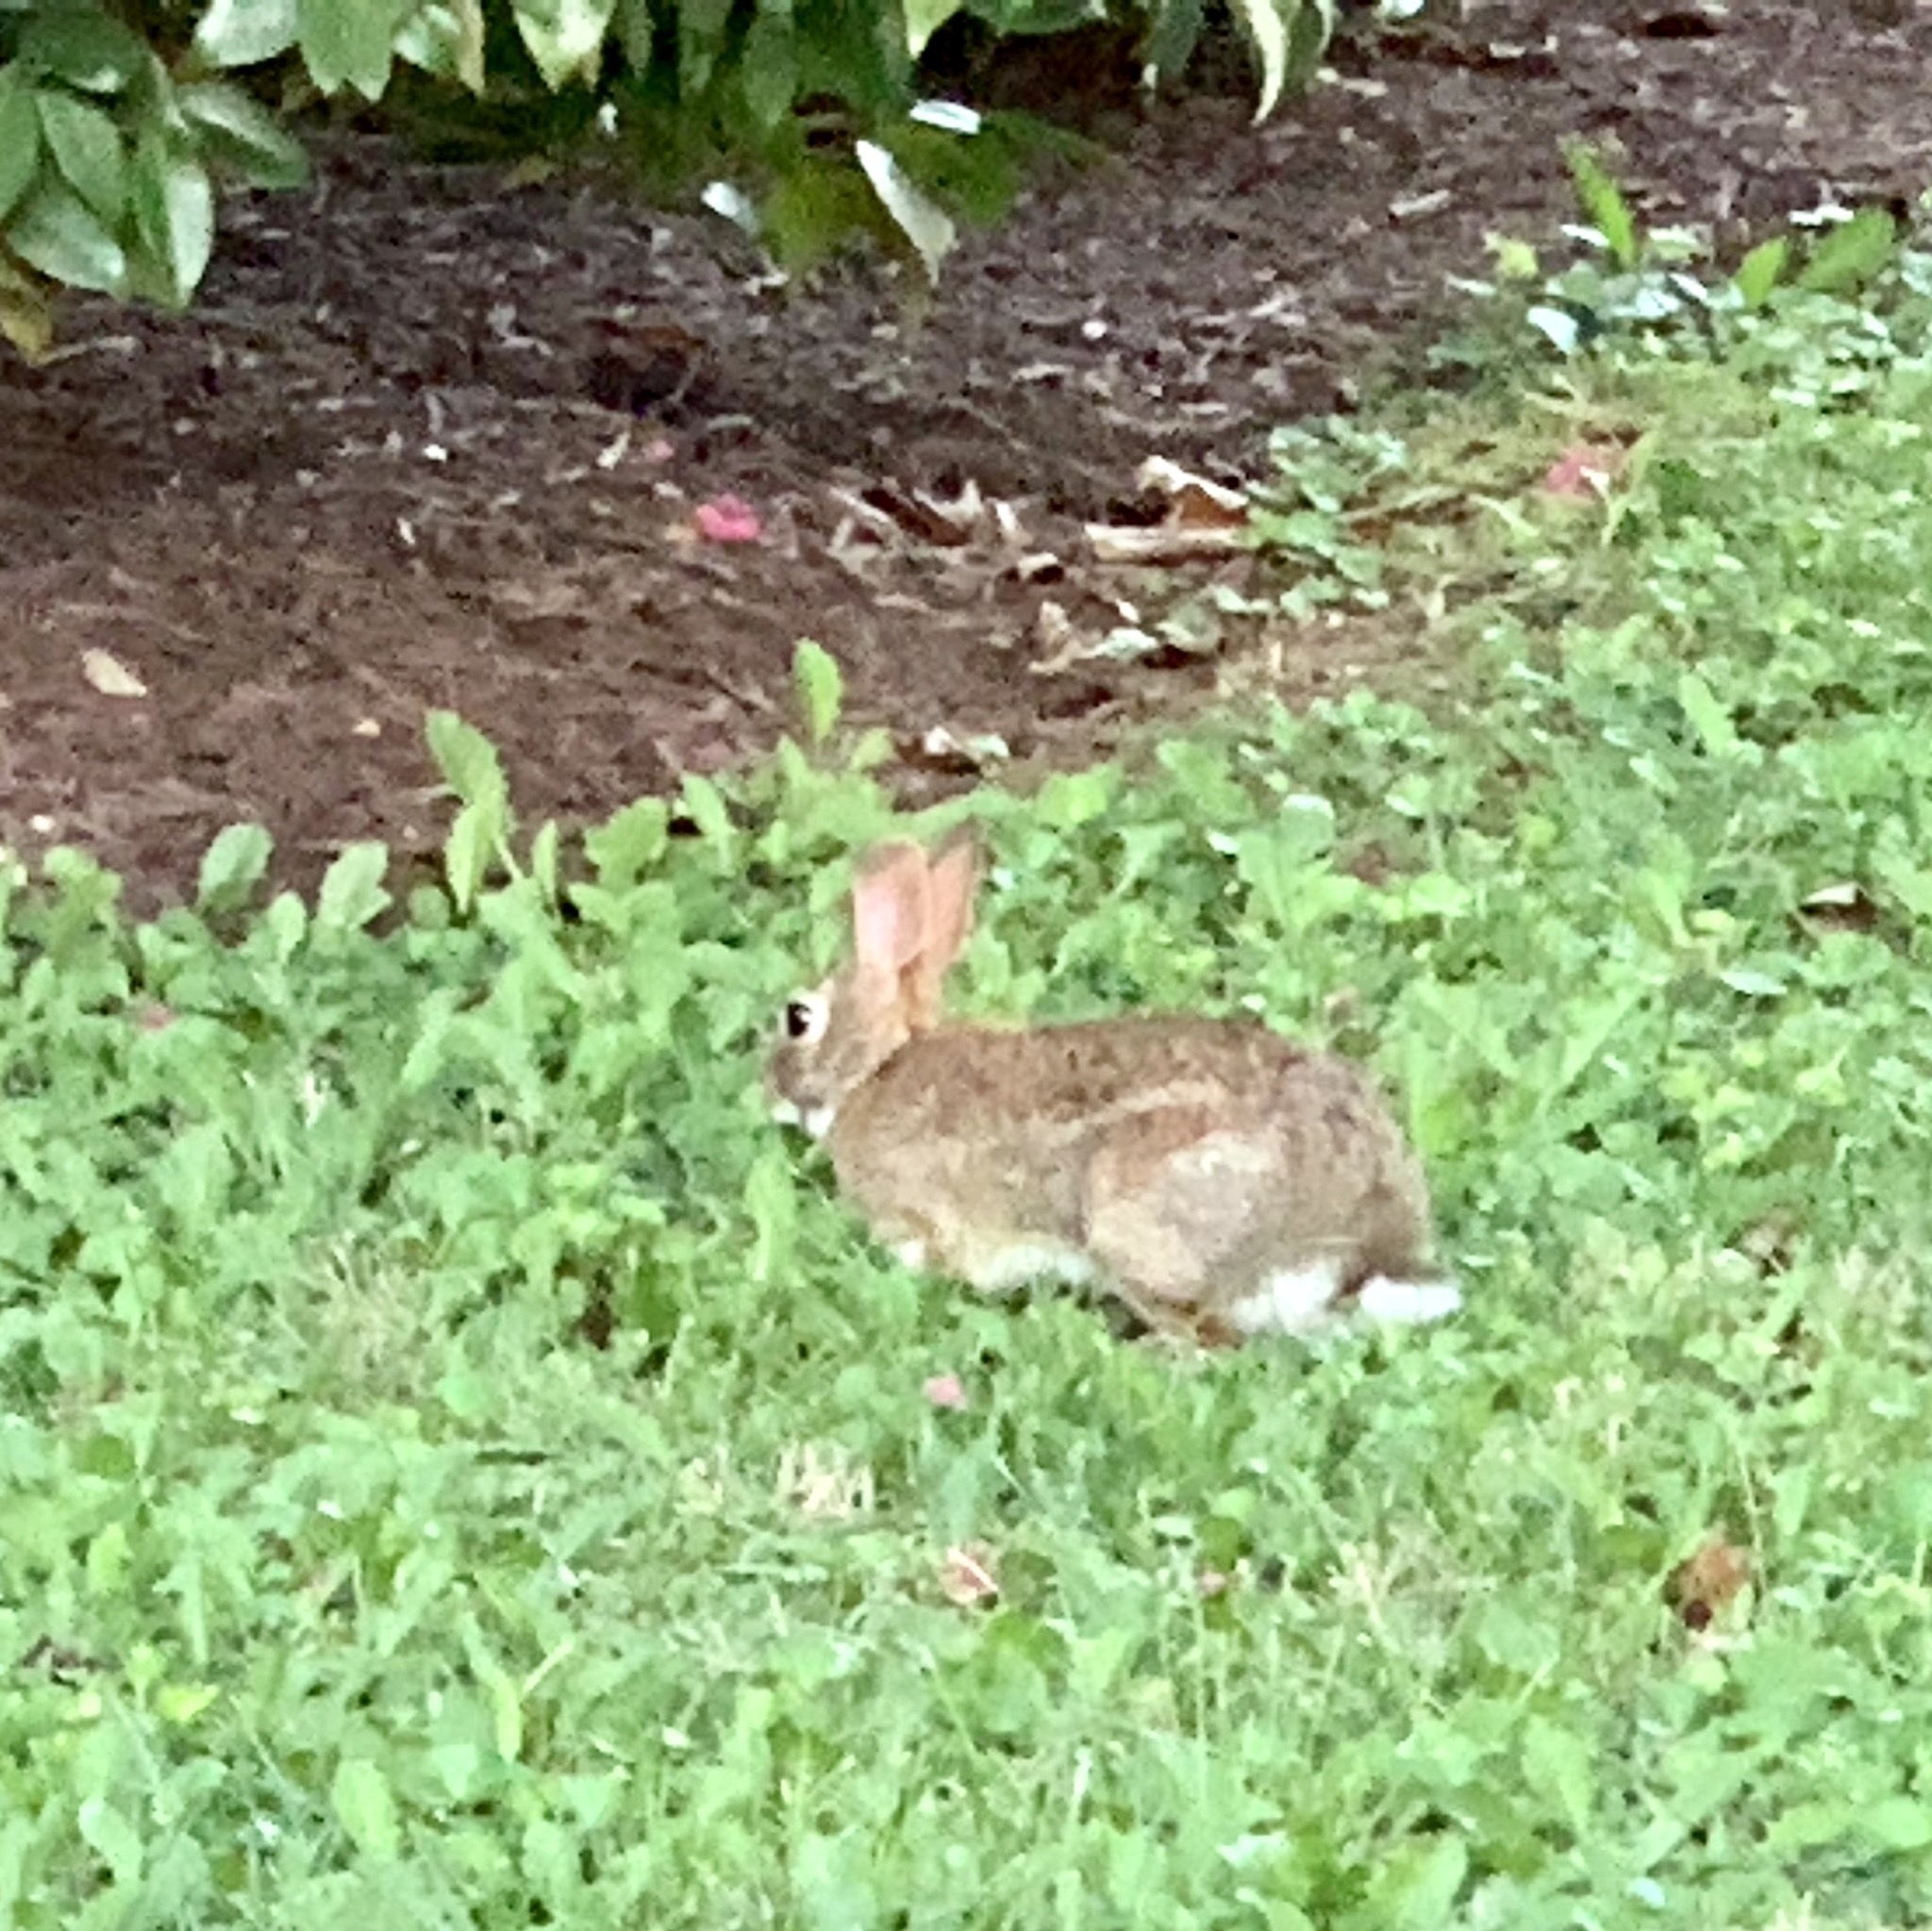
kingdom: Animalia
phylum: Chordata
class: Mammalia
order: Lagomorpha
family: Leporidae
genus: Sylvilagus
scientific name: Sylvilagus floridanus
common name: Eastern cottontail
